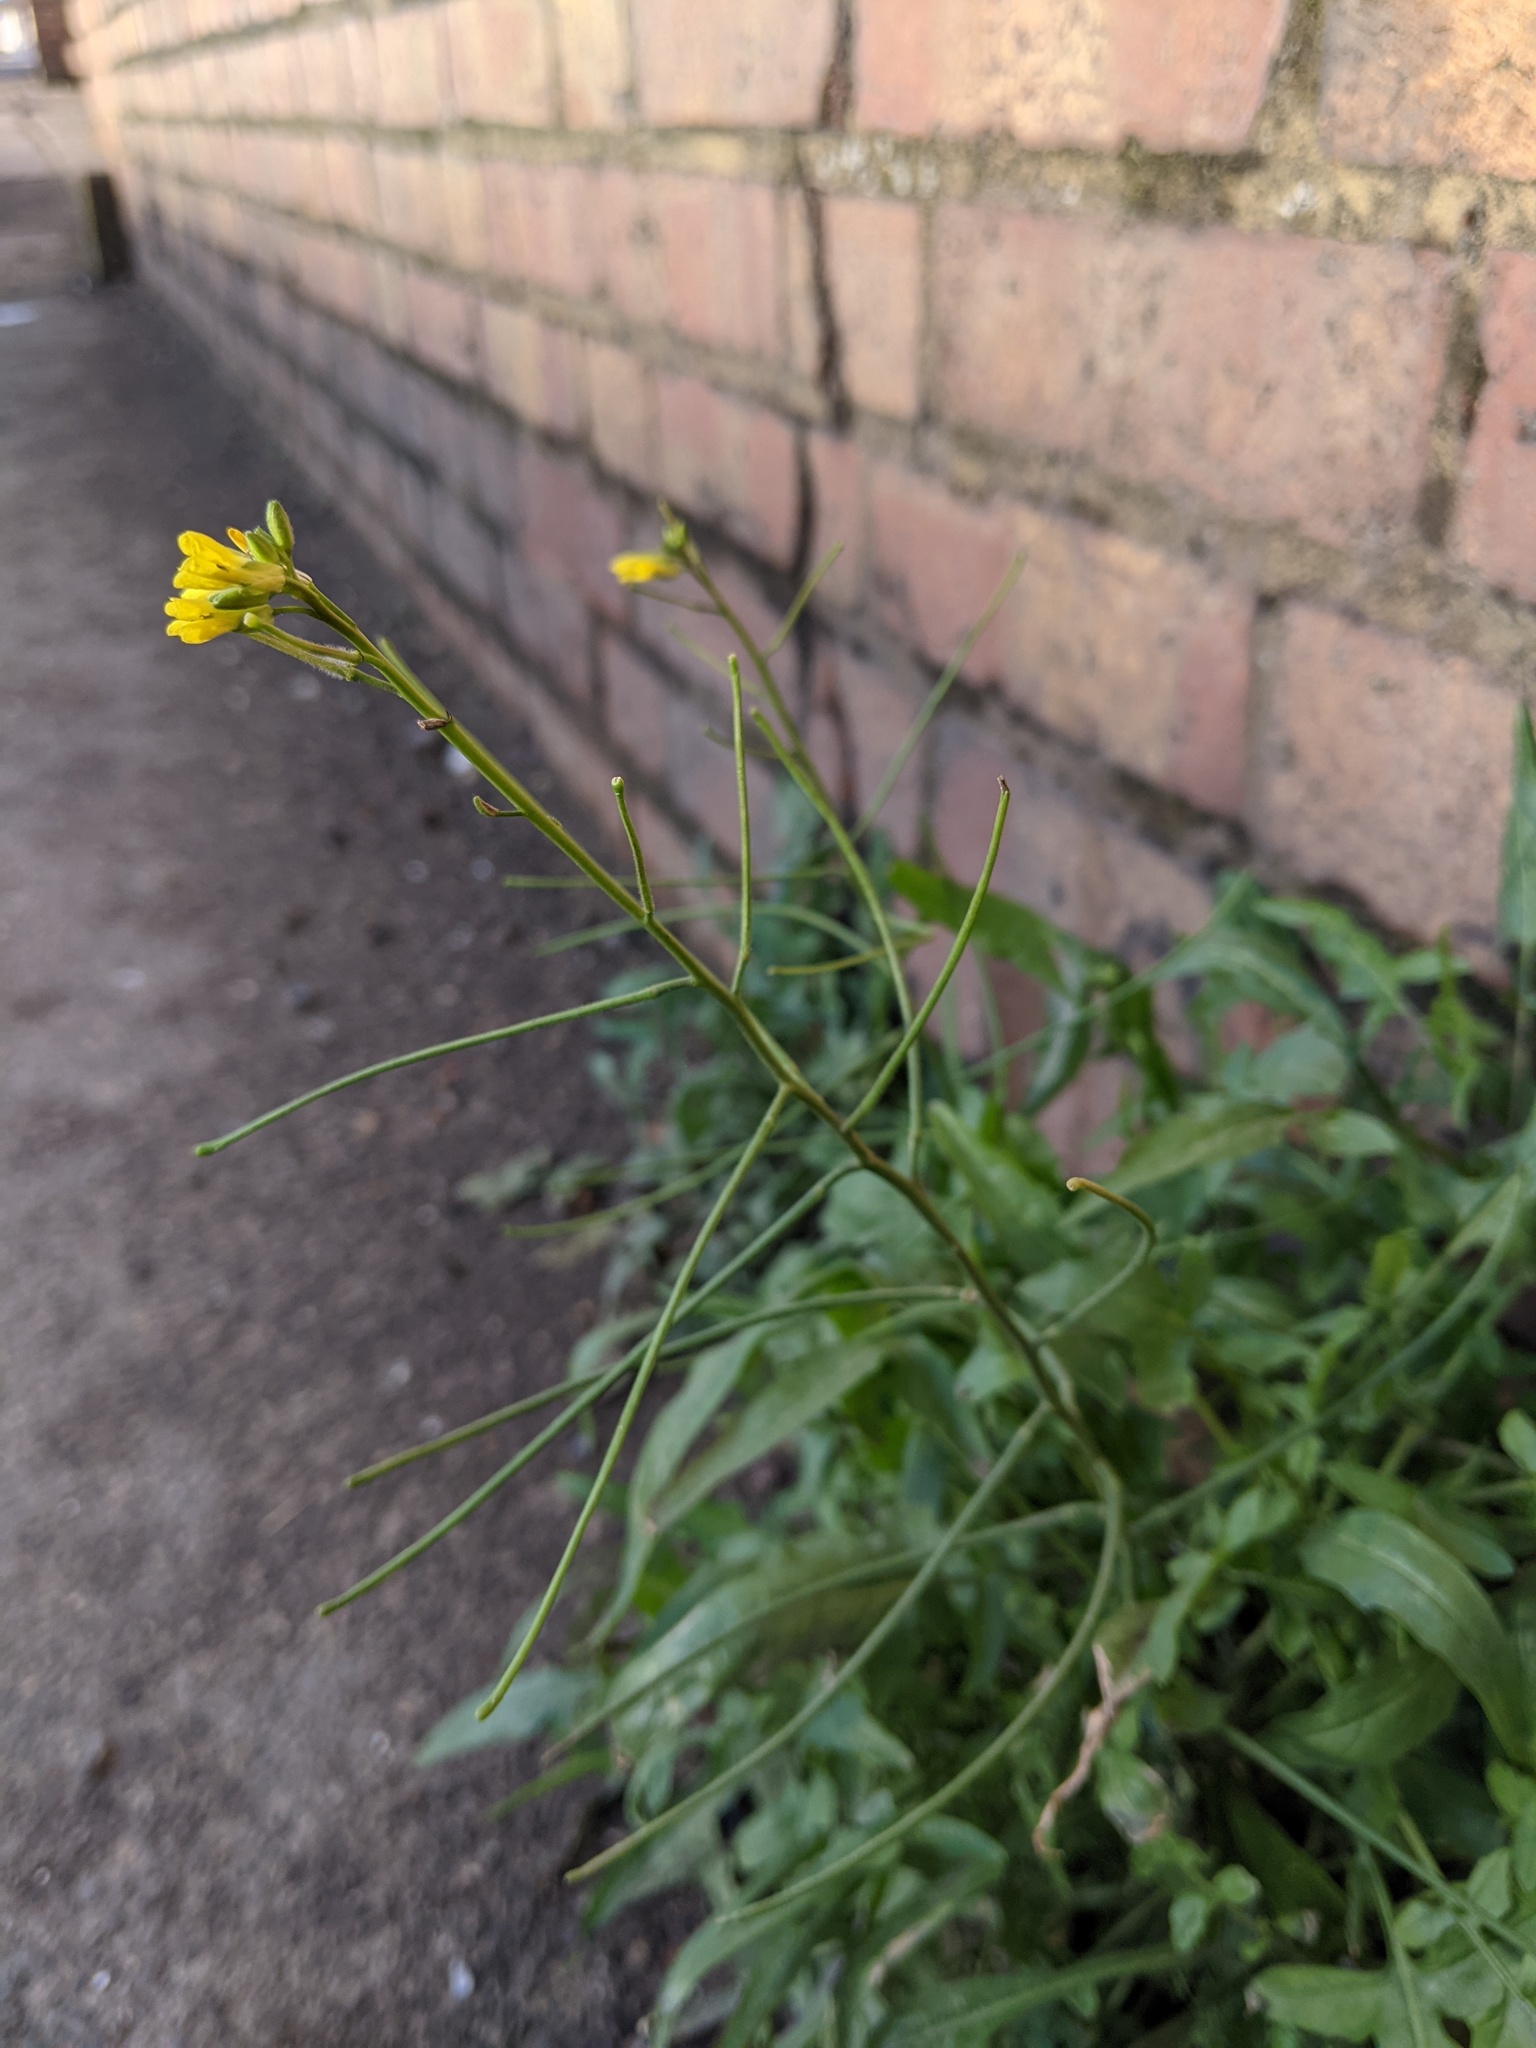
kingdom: Plantae
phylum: Tracheophyta
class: Magnoliopsida
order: Brassicales
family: Brassicaceae
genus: Sisymbrium
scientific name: Sisymbrium orientale
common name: Eastern rocket
